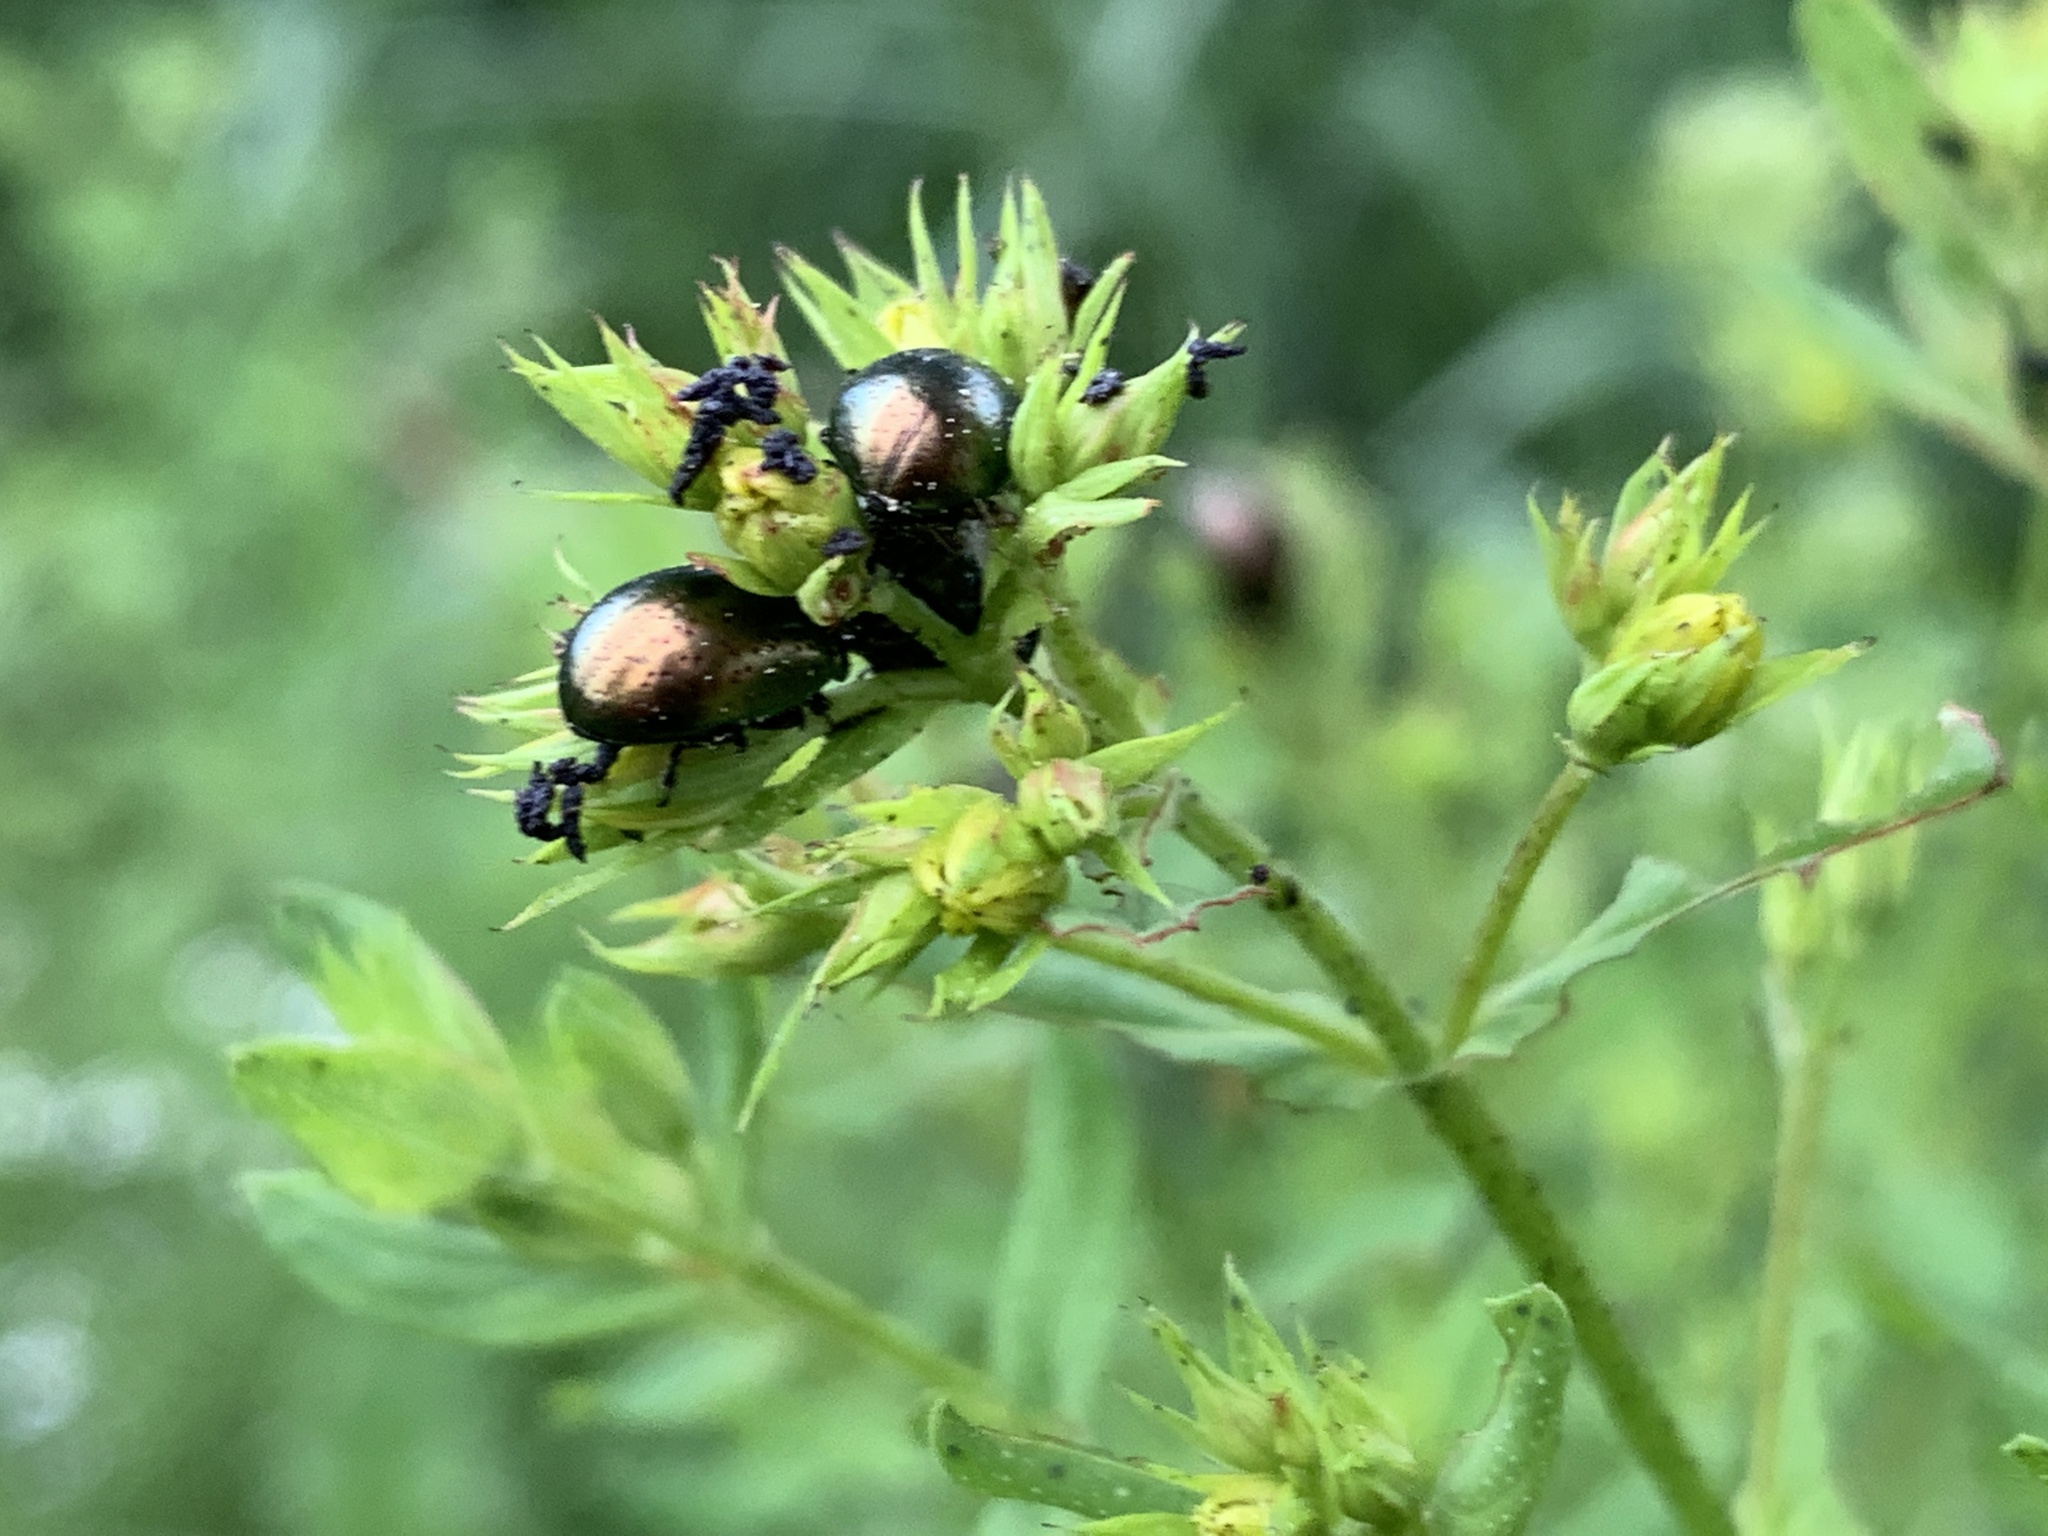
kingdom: Animalia
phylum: Arthropoda
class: Insecta
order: Coleoptera
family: Chrysomelidae
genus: Chrysolina
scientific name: Chrysolina hyperici
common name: St. johnswort beetle
